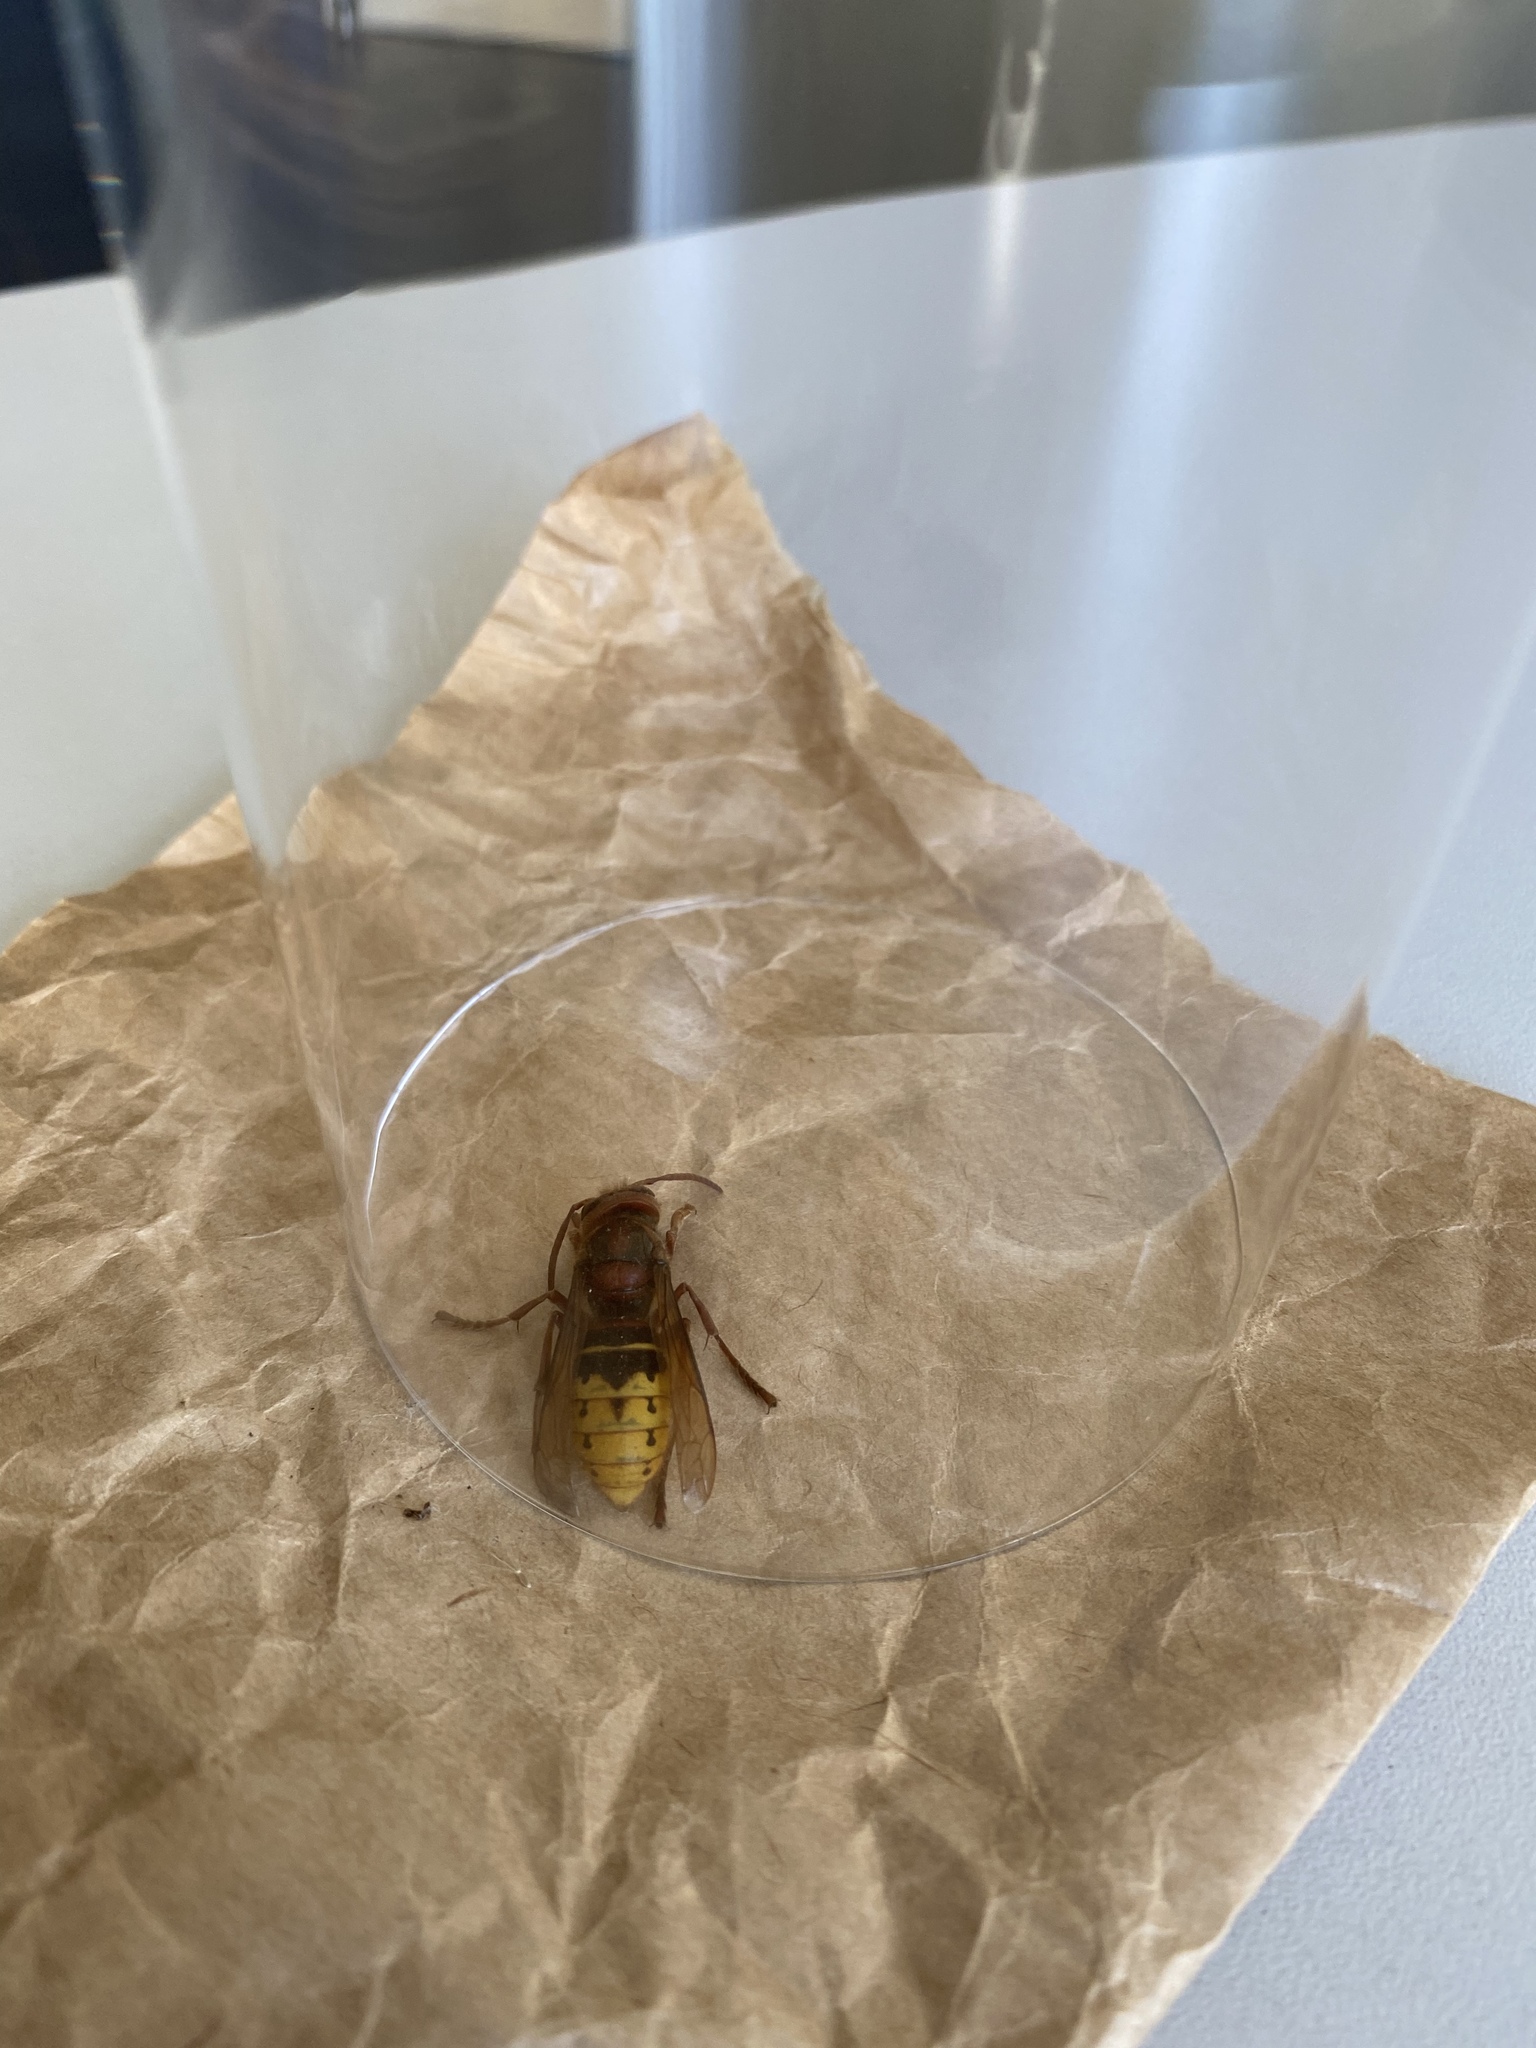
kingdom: Animalia
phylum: Arthropoda
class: Insecta
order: Hymenoptera
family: Vespidae
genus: Vespa
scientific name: Vespa crabro
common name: Hornet
